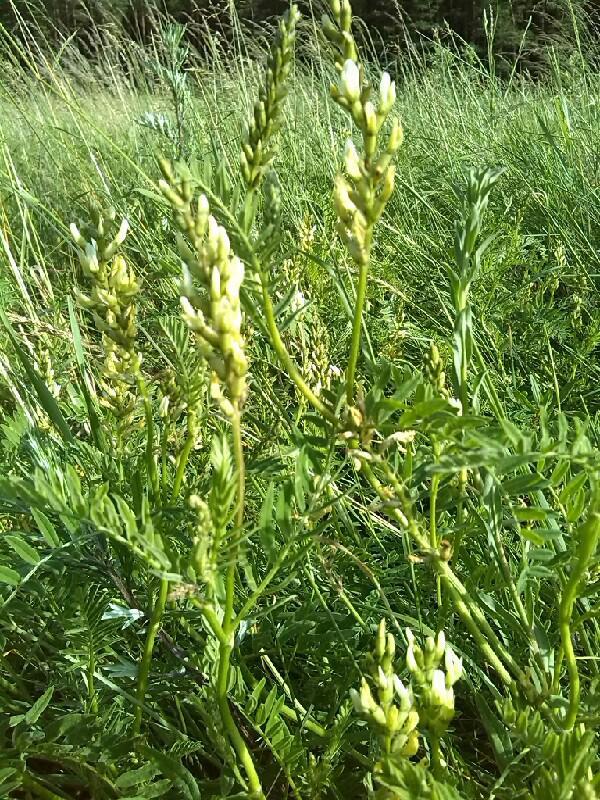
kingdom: Plantae
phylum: Tracheophyta
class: Magnoliopsida
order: Fabales
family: Fabaceae
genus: Astragalus
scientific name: Astragalus cicer
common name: Chick-pea milk-vetch
